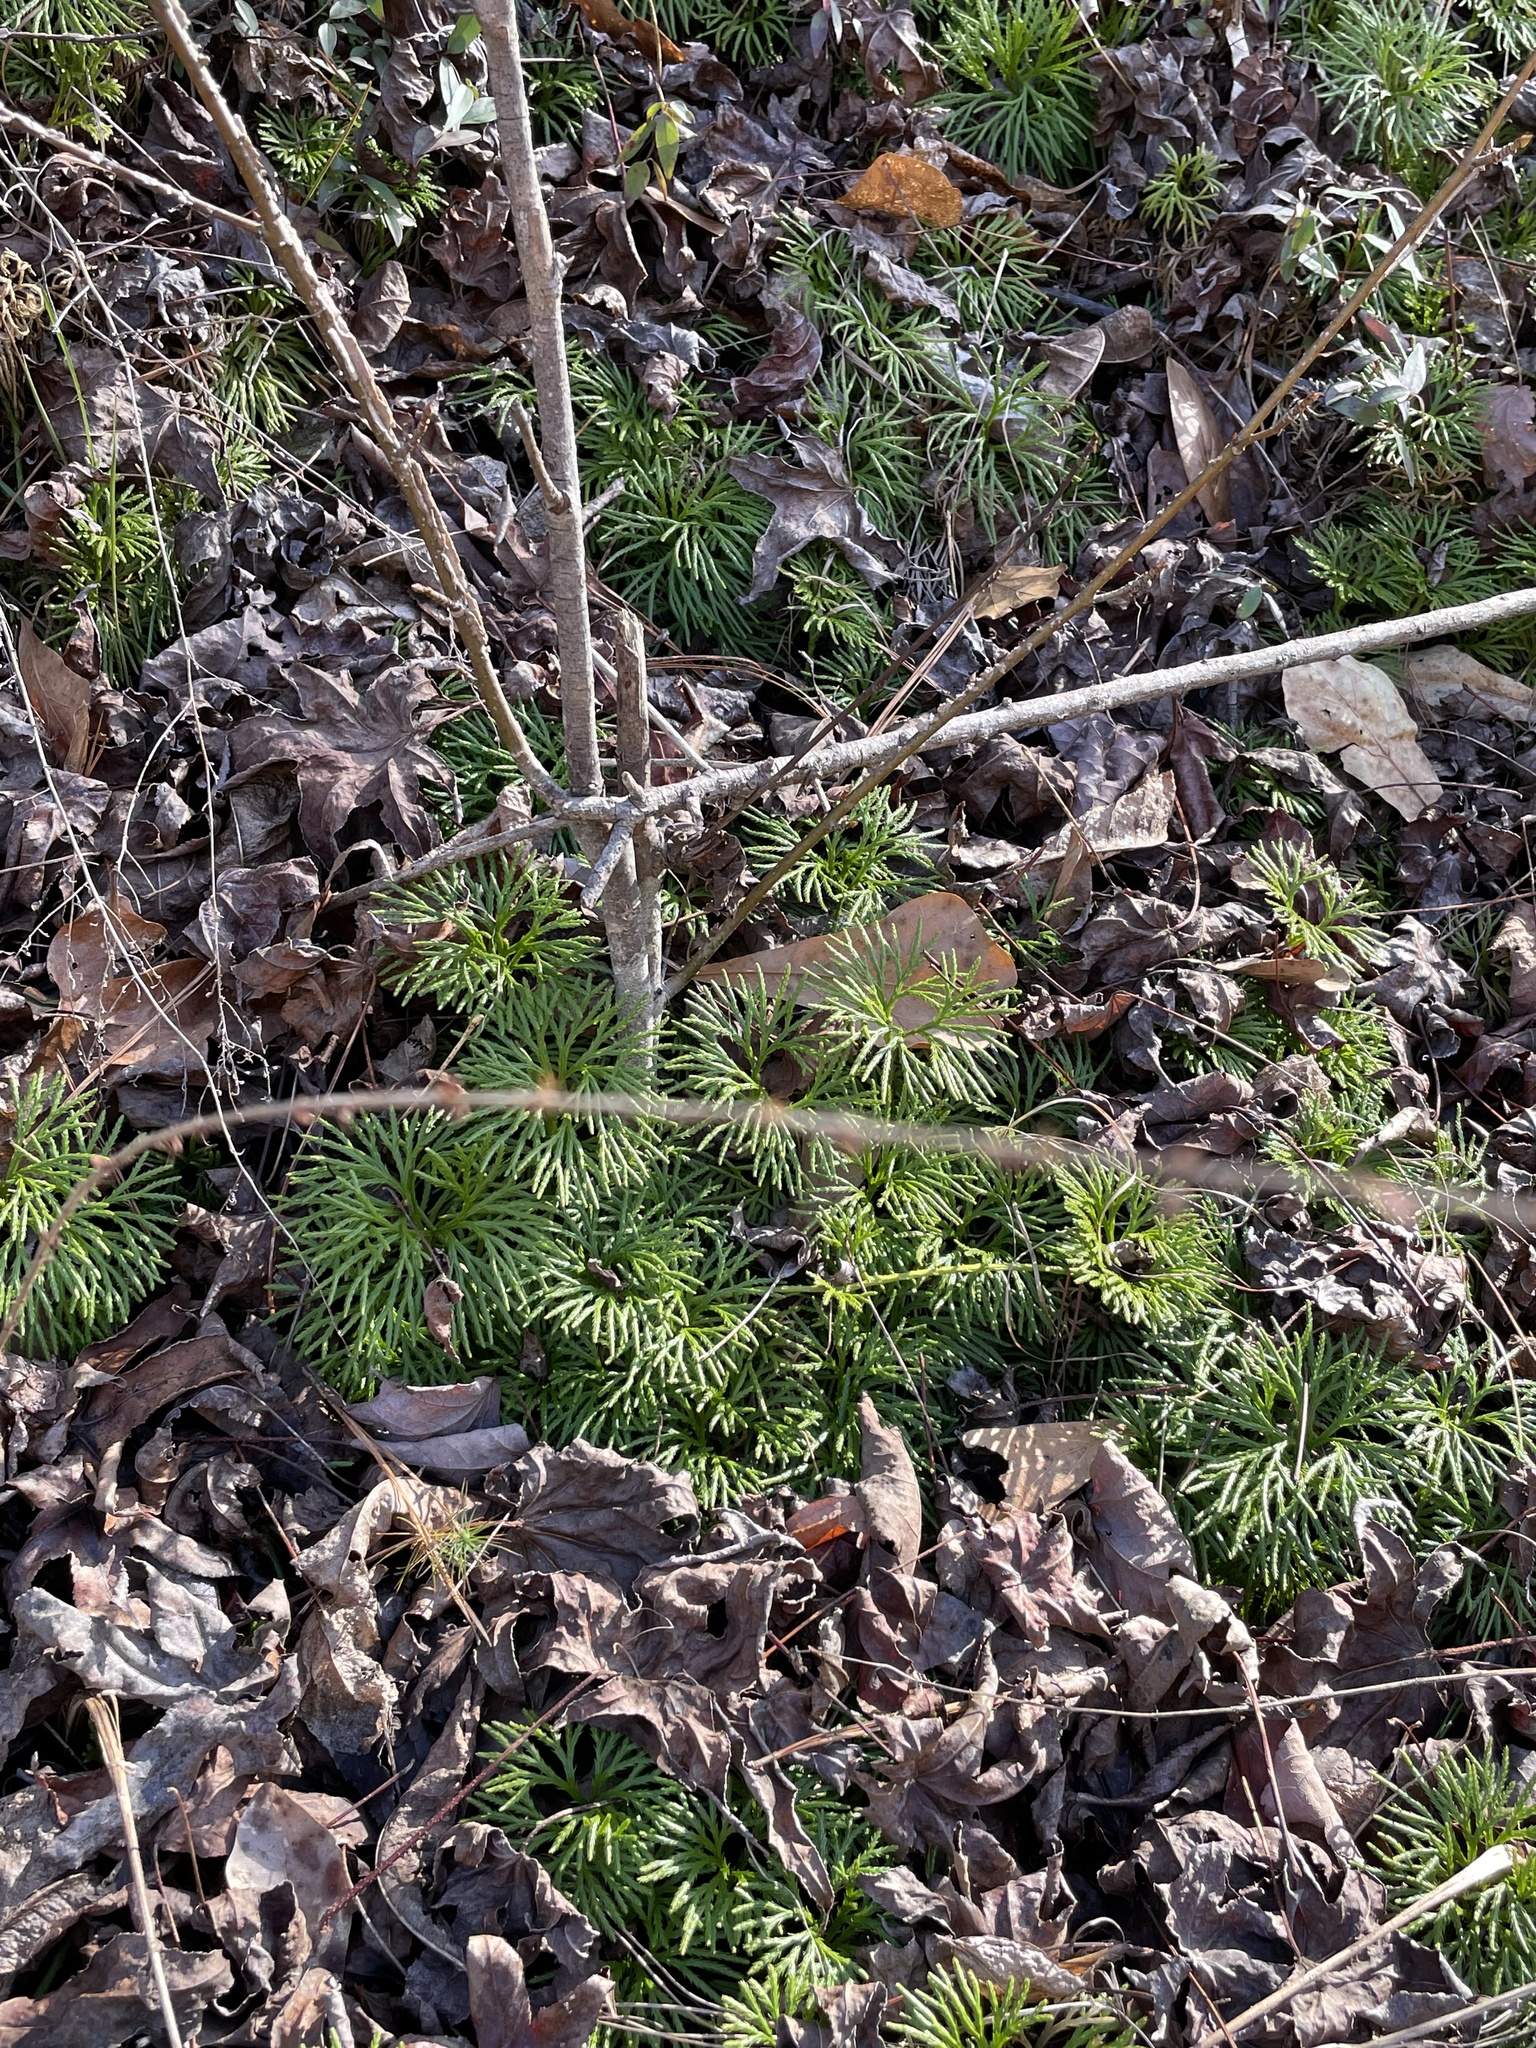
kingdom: Plantae
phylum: Tracheophyta
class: Lycopodiopsida
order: Lycopodiales
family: Lycopodiaceae
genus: Diphasiastrum
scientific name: Diphasiastrum digitatum
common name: Southern running-pine
